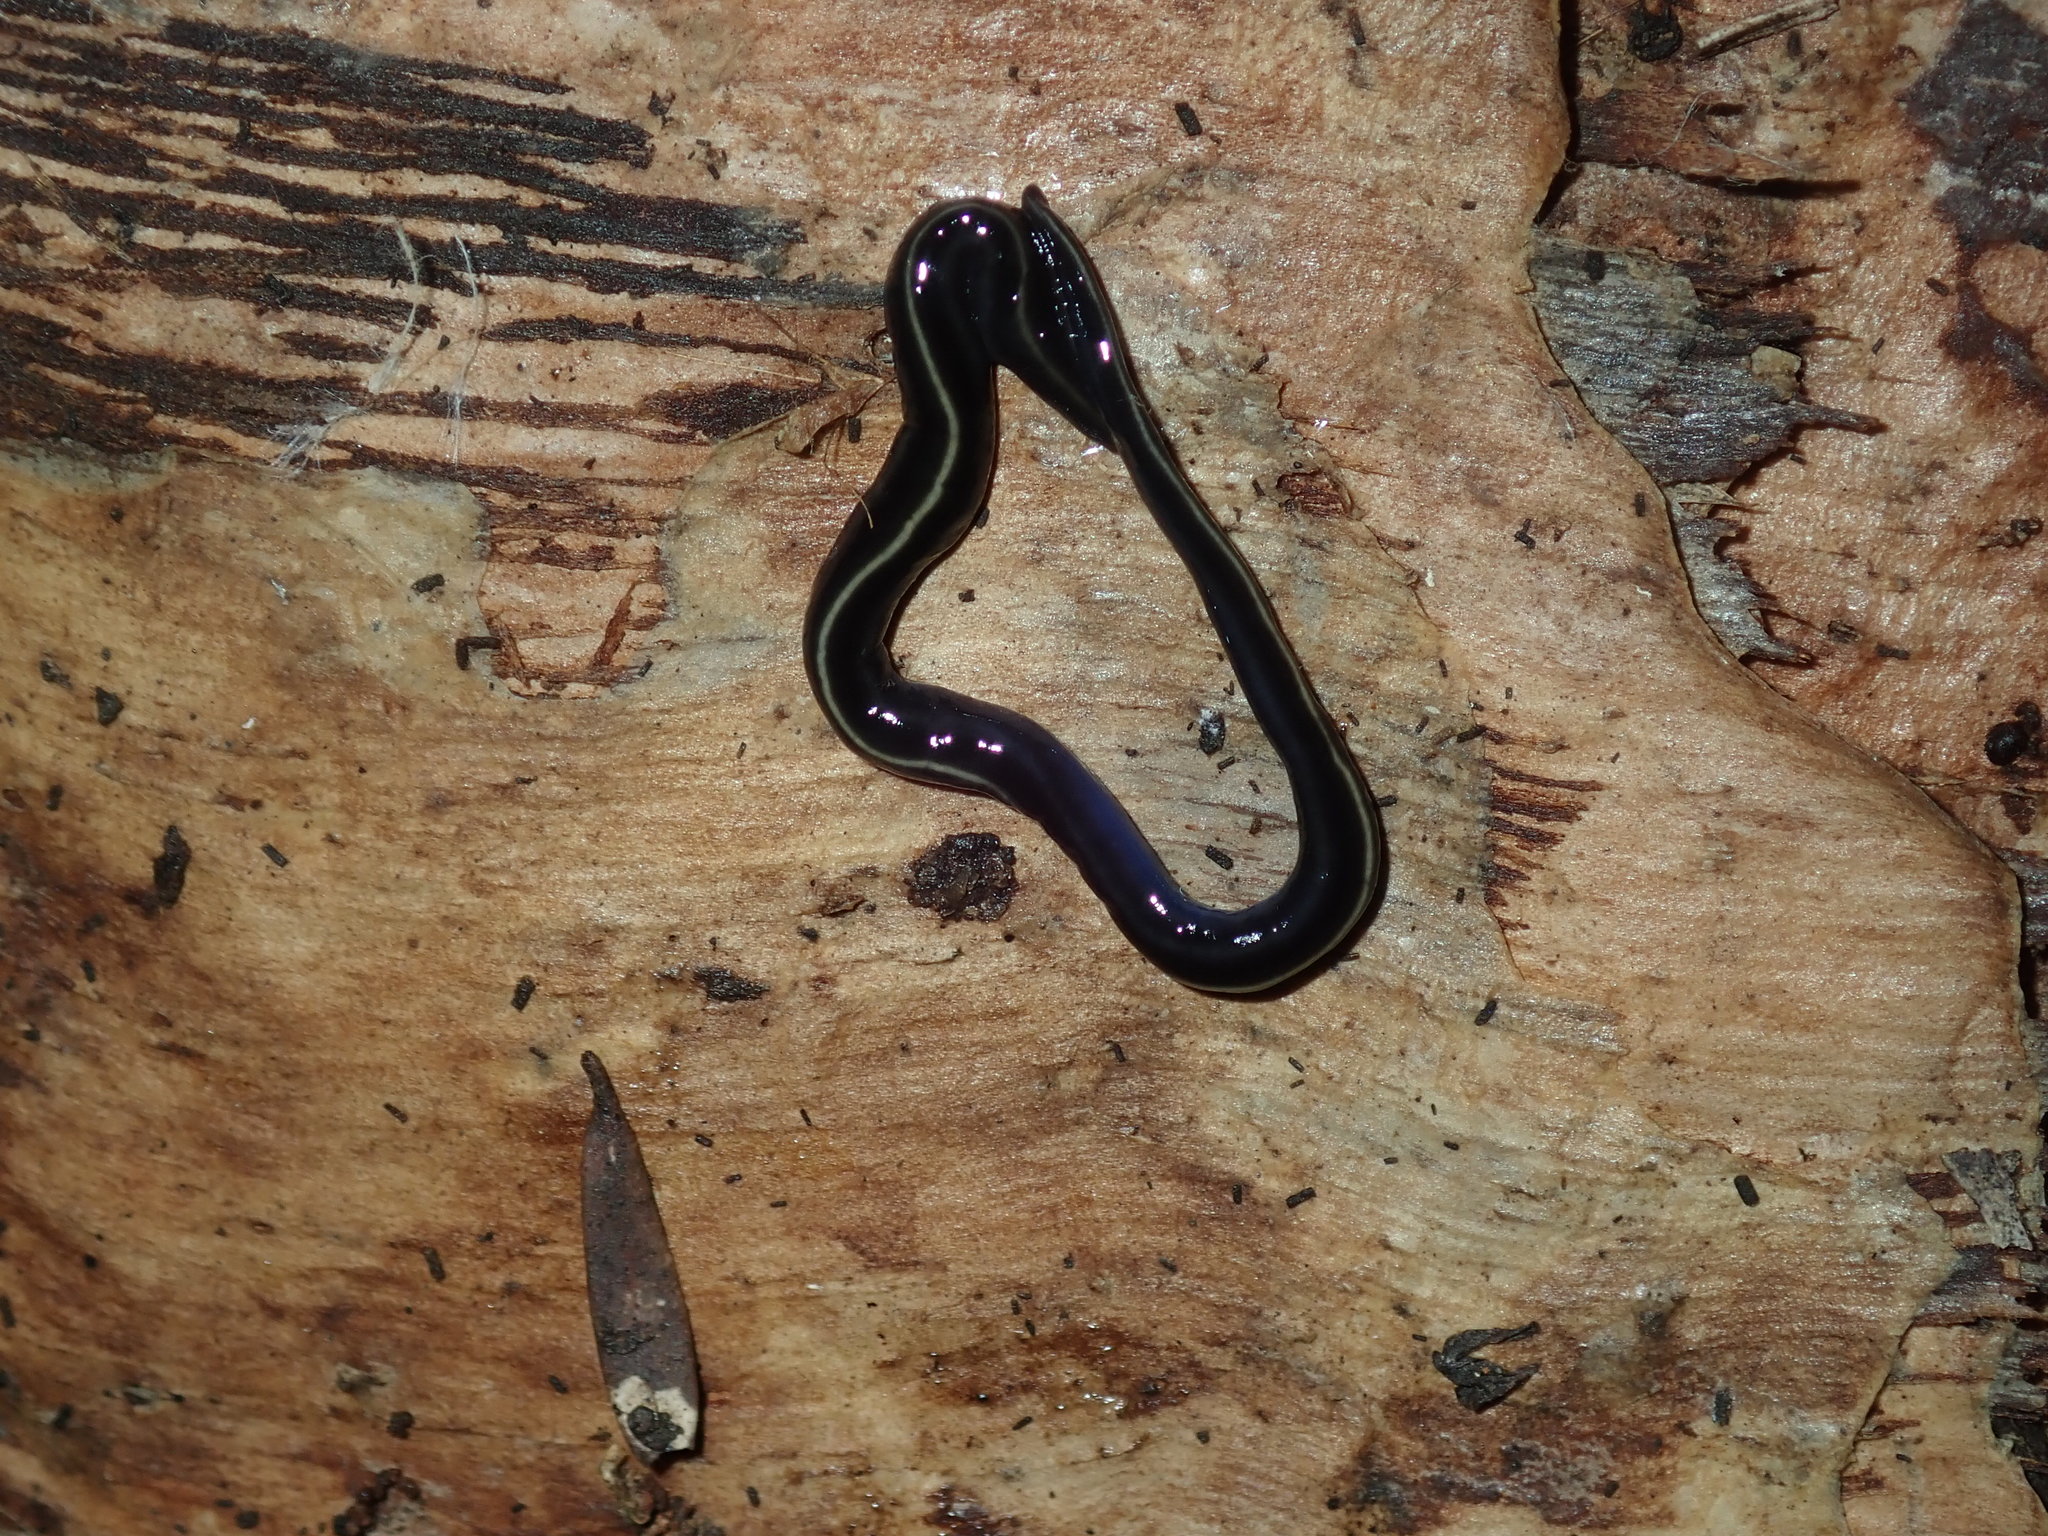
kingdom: Animalia
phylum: Platyhelminthes
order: Tricladida
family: Geoplanidae
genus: Caenoplana
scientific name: Caenoplana coerulea
